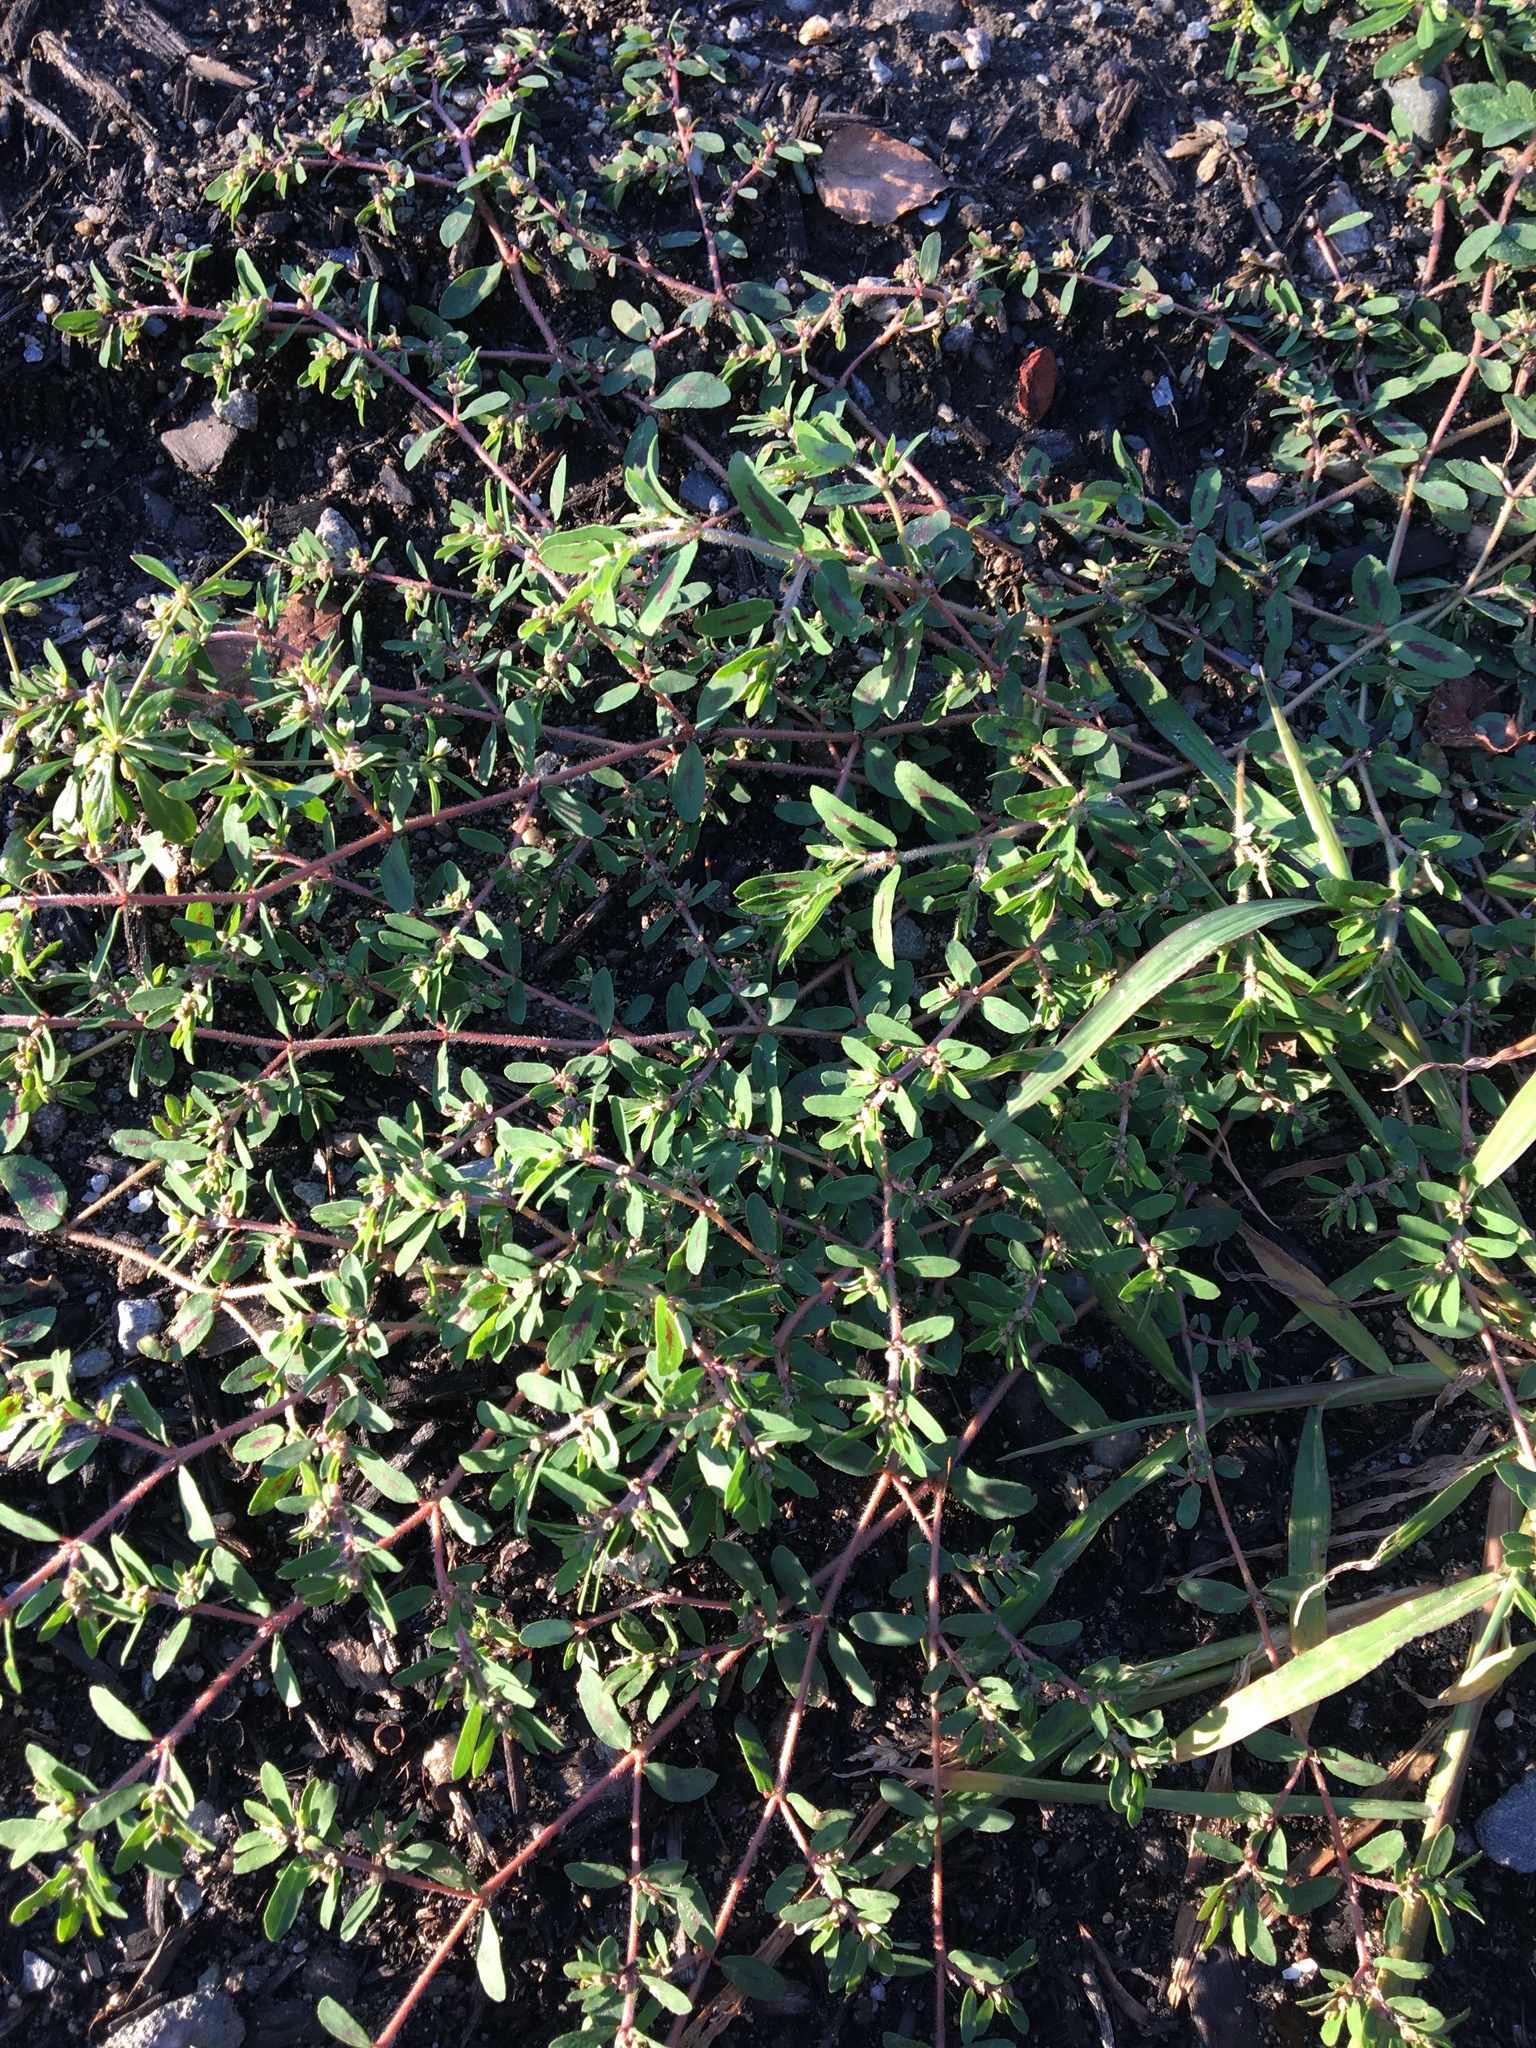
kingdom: Plantae
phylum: Tracheophyta
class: Magnoliopsida
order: Malpighiales
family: Euphorbiaceae
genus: Euphorbia
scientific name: Euphorbia maculata
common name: Spotted spurge
